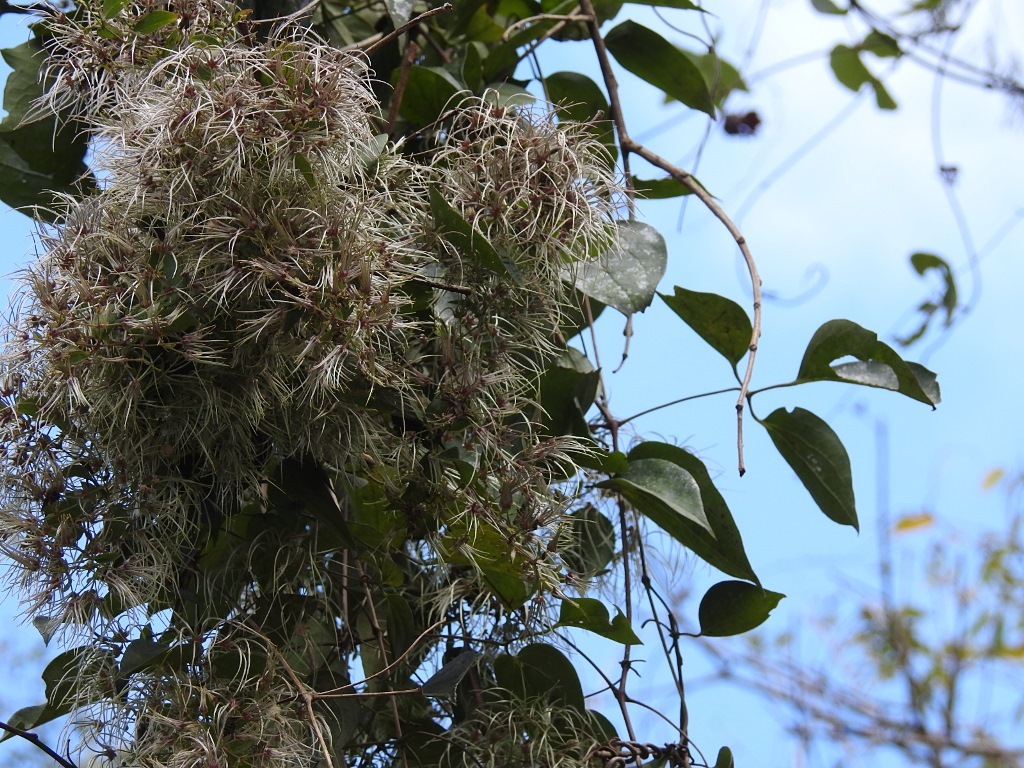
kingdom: Plantae
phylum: Tracheophyta
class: Magnoliopsida
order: Ranunculales
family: Ranunculaceae
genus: Clematis
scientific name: Clematis dioica
